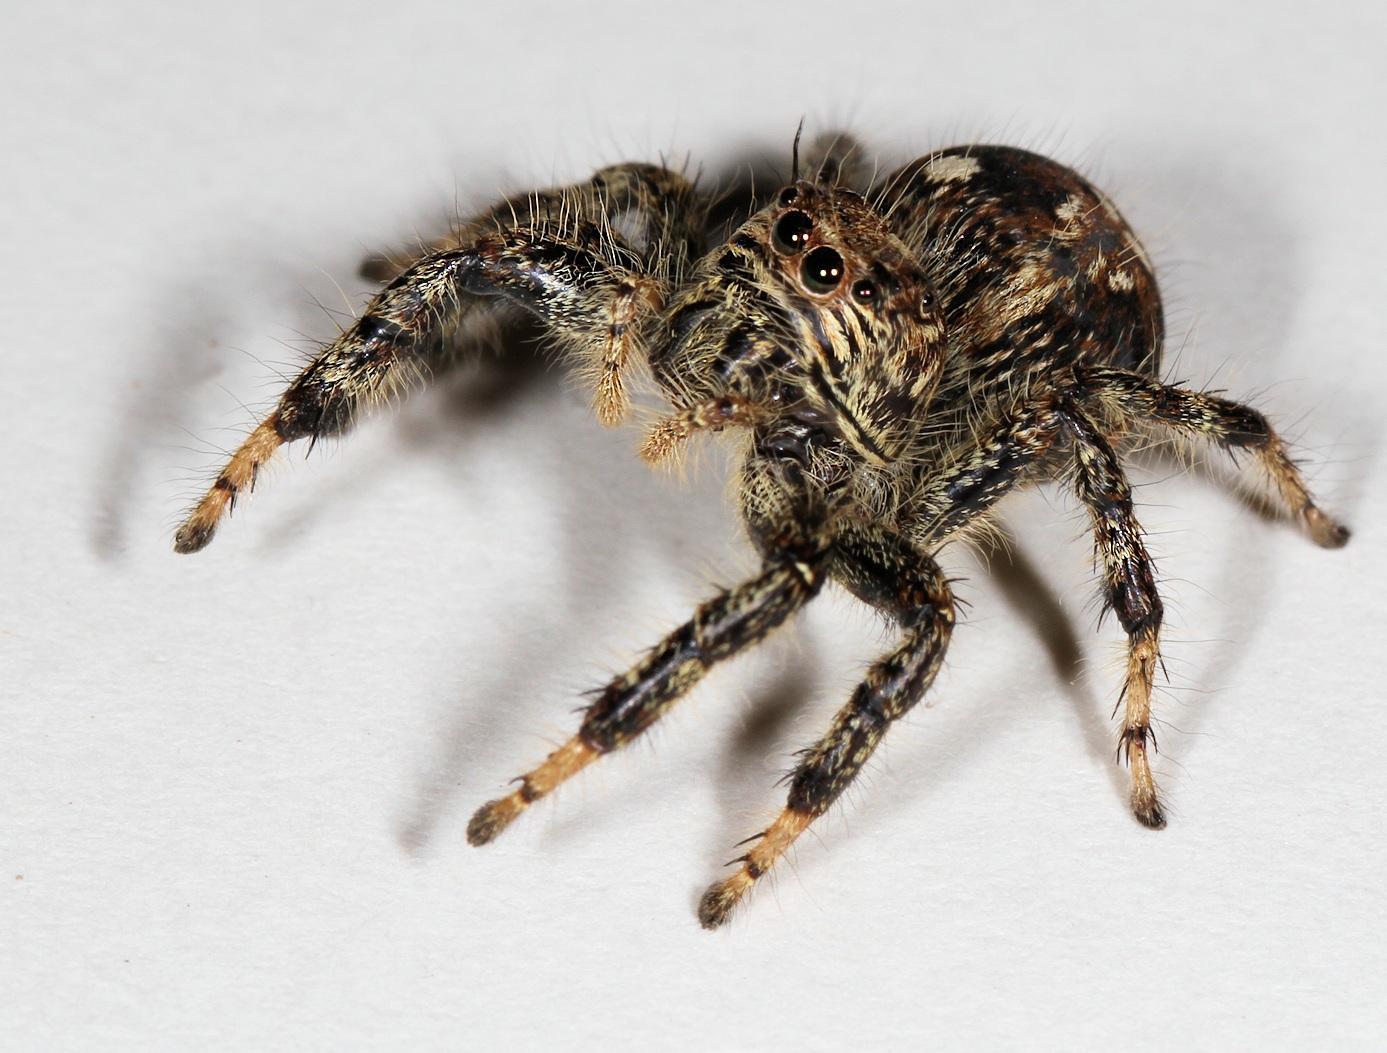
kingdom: Animalia
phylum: Arthropoda
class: Arachnida
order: Araneae
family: Salticidae
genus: Hyllus
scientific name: Hyllus treleaveni
